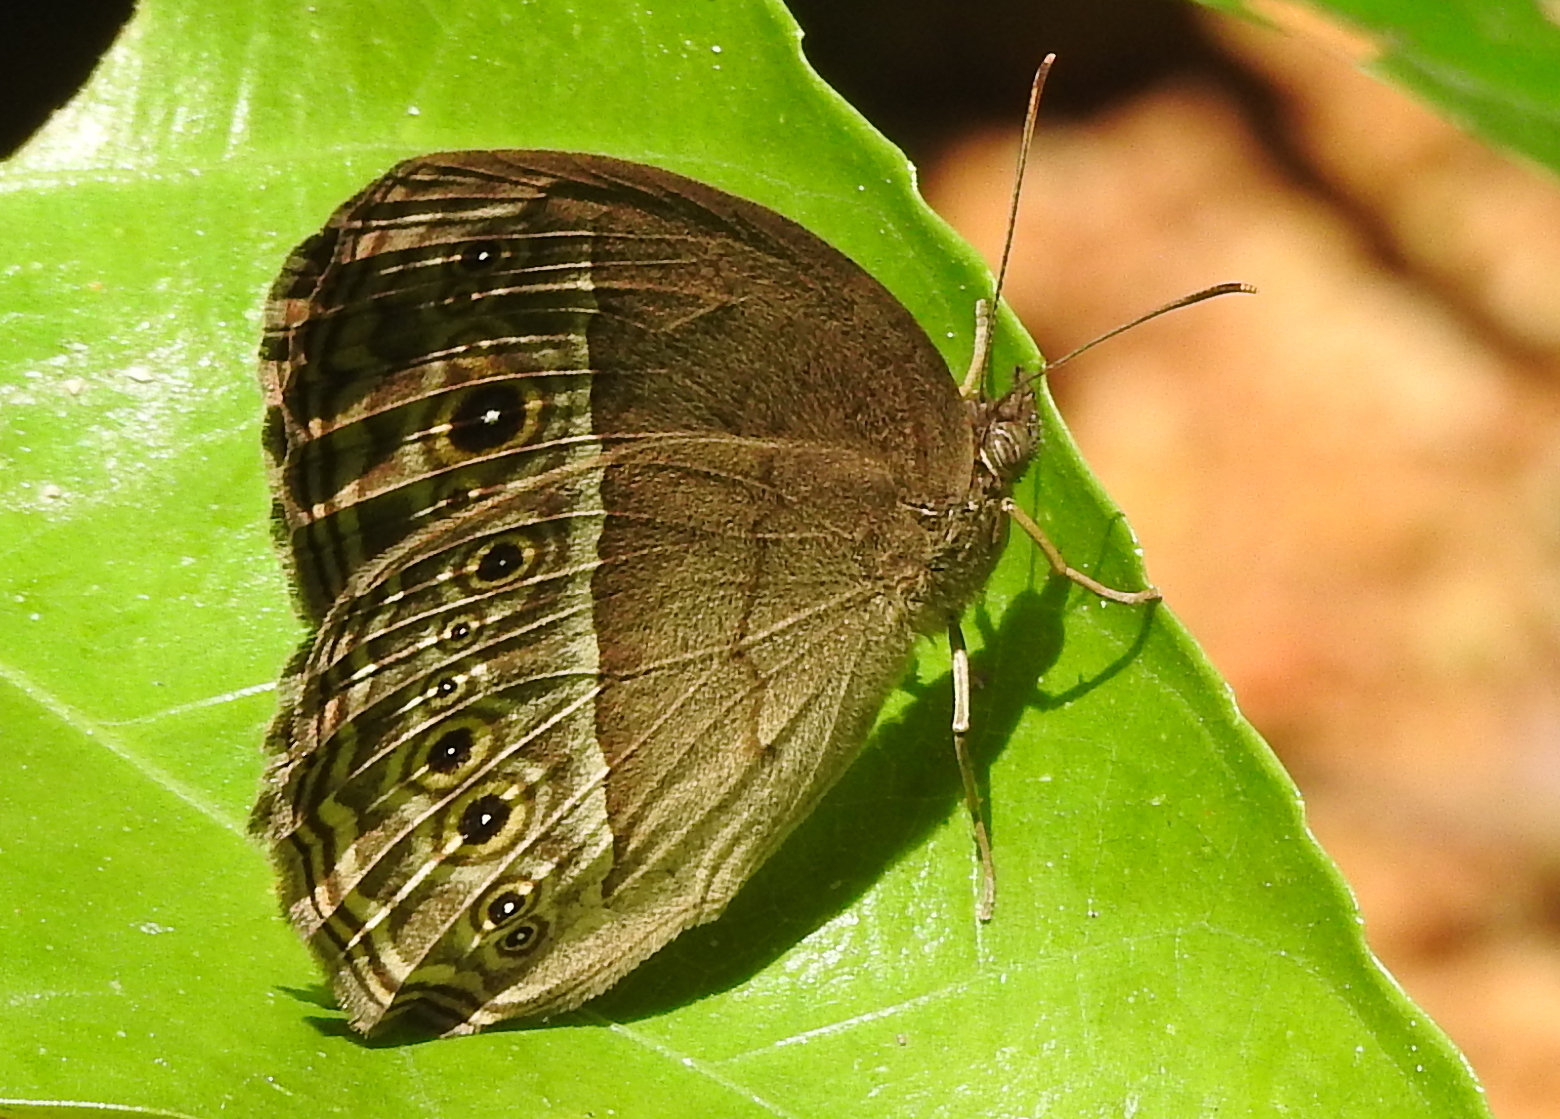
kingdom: Animalia
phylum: Arthropoda
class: Insecta
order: Lepidoptera
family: Nymphalidae
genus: Mycalesis
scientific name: Mycalesis perseoides
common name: Burmese bushbrown
